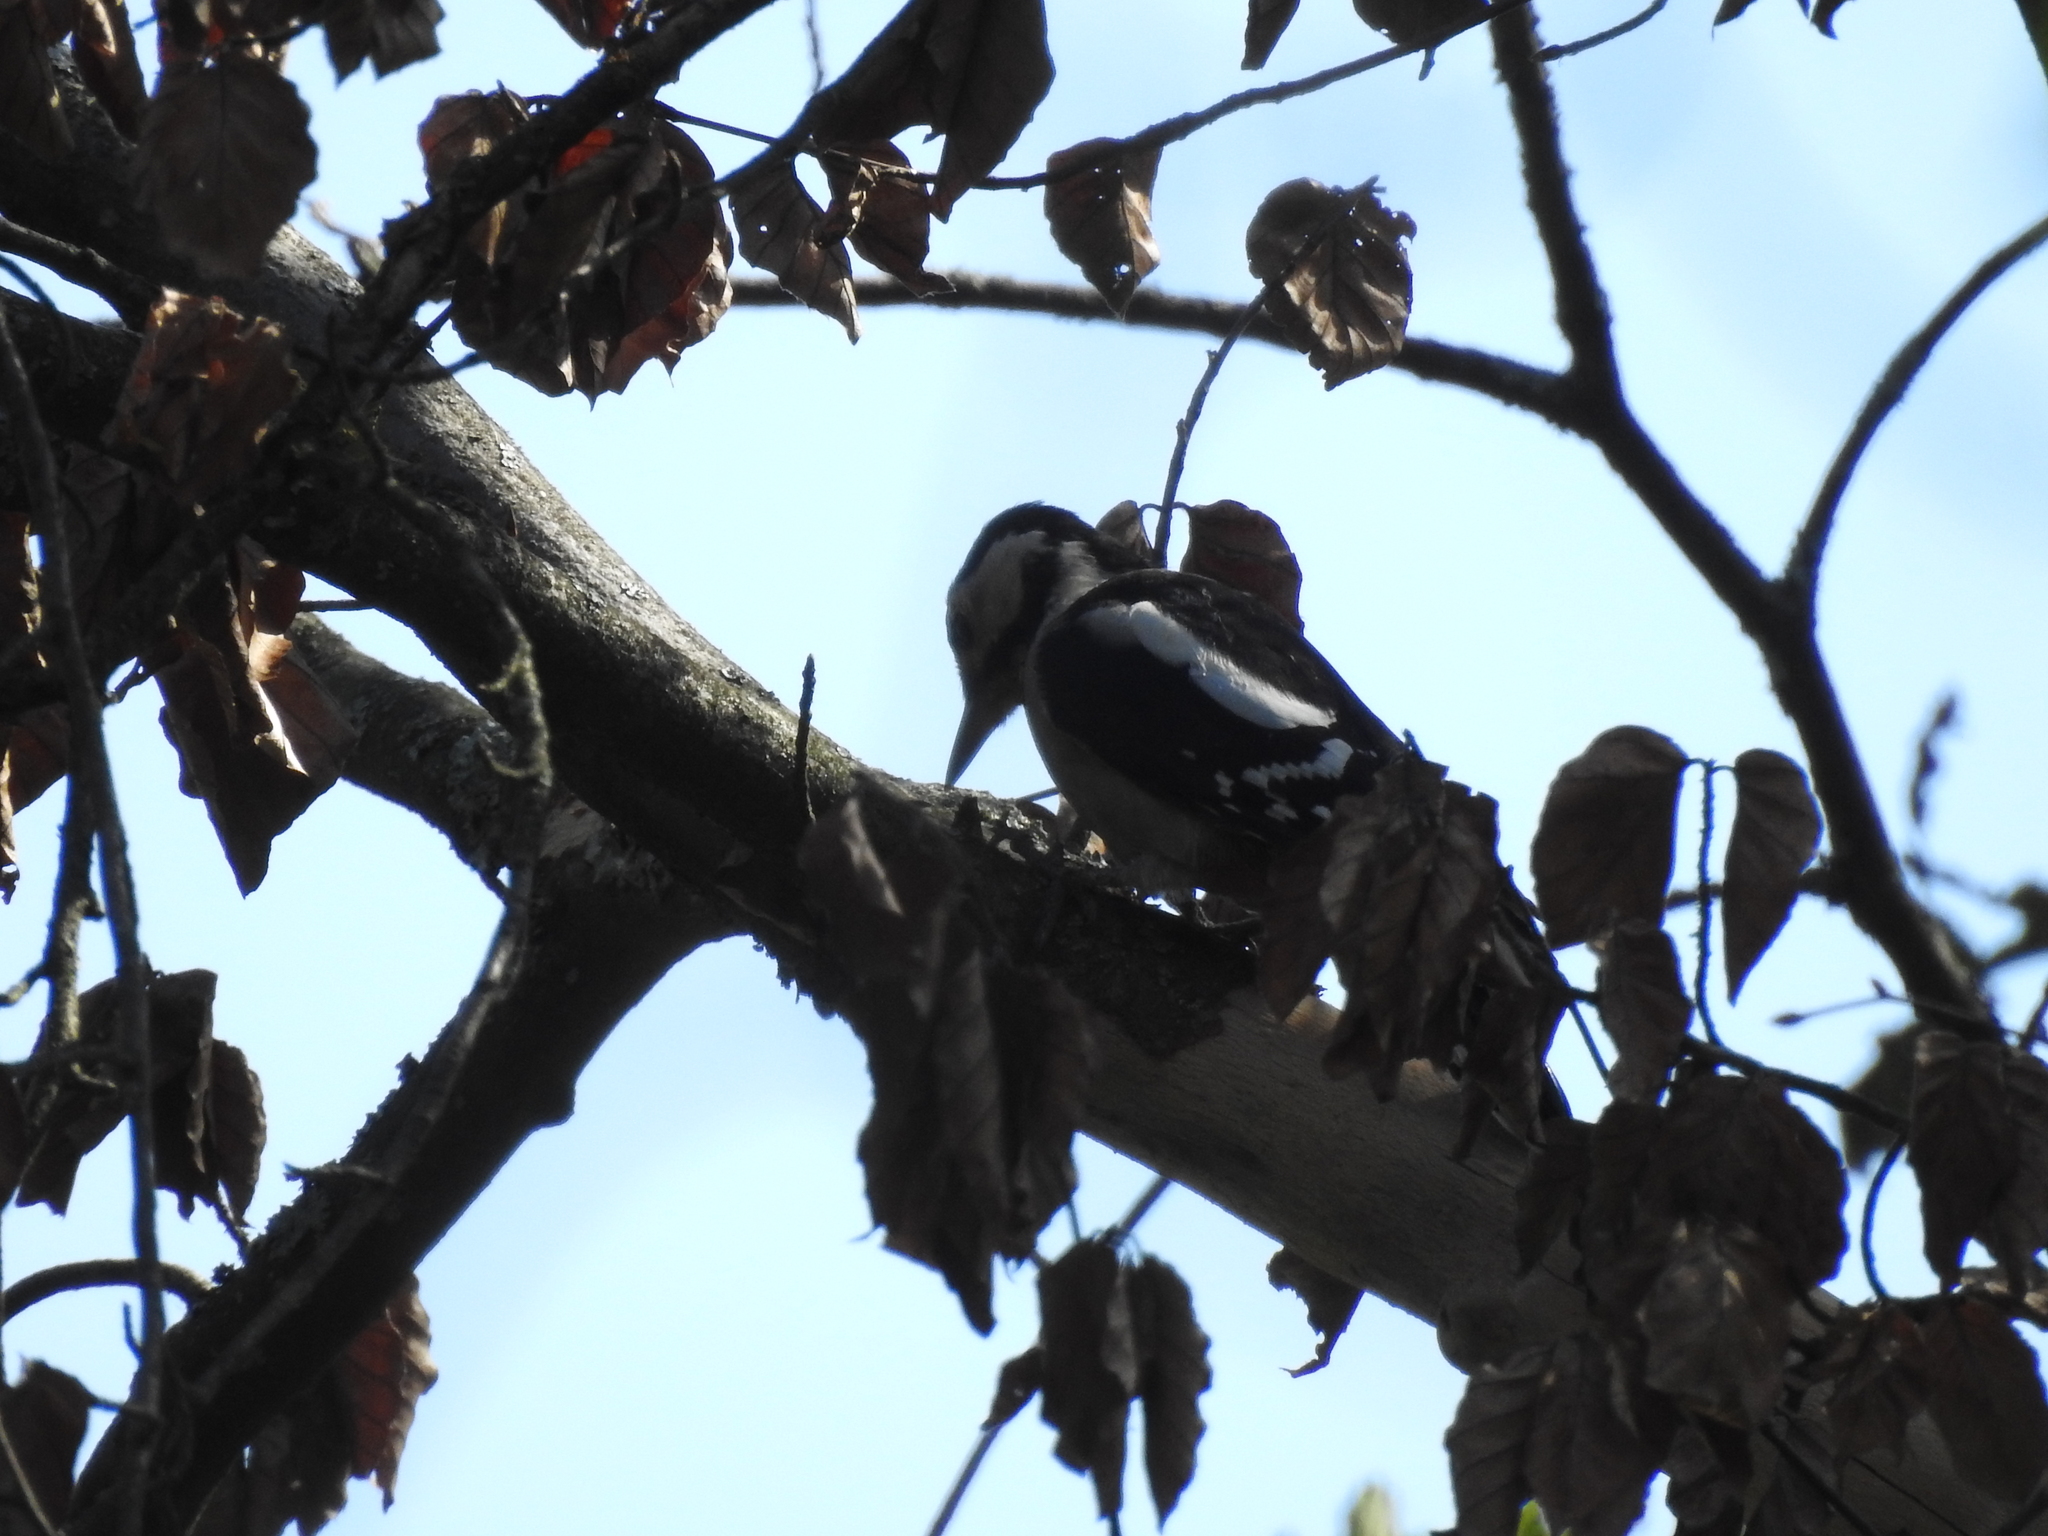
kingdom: Animalia
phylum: Chordata
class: Aves
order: Piciformes
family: Picidae
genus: Dendrocopos
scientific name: Dendrocopos major
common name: Great spotted woodpecker
